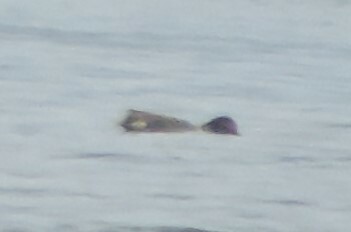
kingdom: Animalia
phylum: Chordata
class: Aves
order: Anseriformes
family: Anatidae
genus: Anas
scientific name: Anas crecca
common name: Eurasian teal
